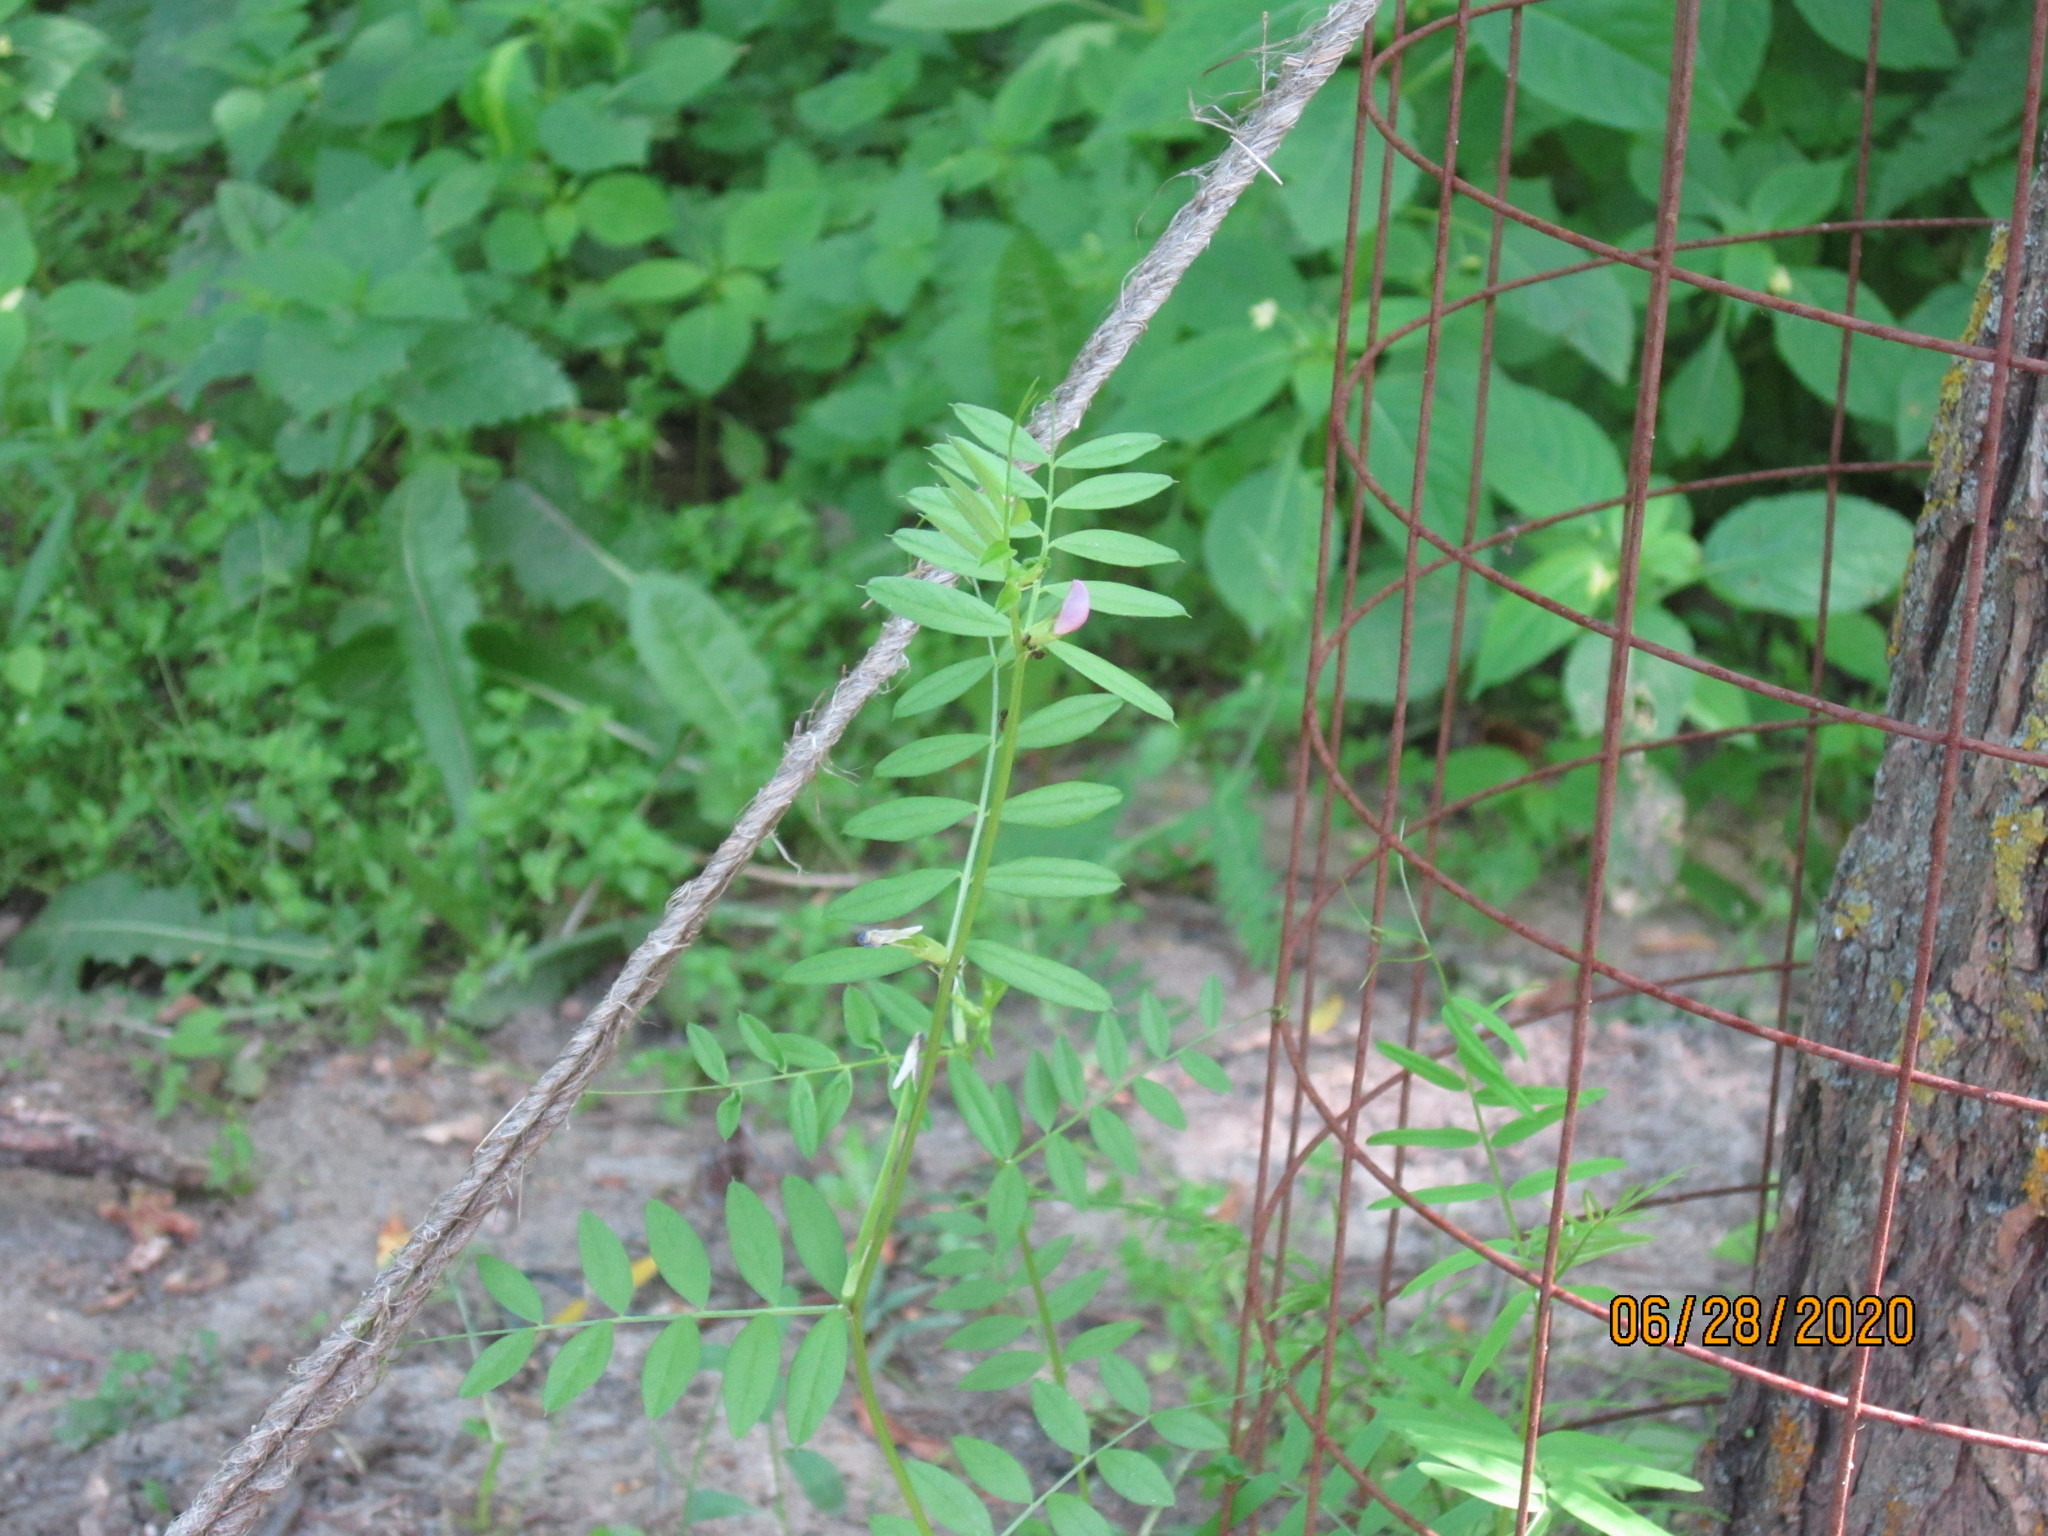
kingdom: Plantae
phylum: Tracheophyta
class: Magnoliopsida
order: Fabales
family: Fabaceae
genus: Vicia
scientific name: Vicia sativa
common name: Garden vetch
